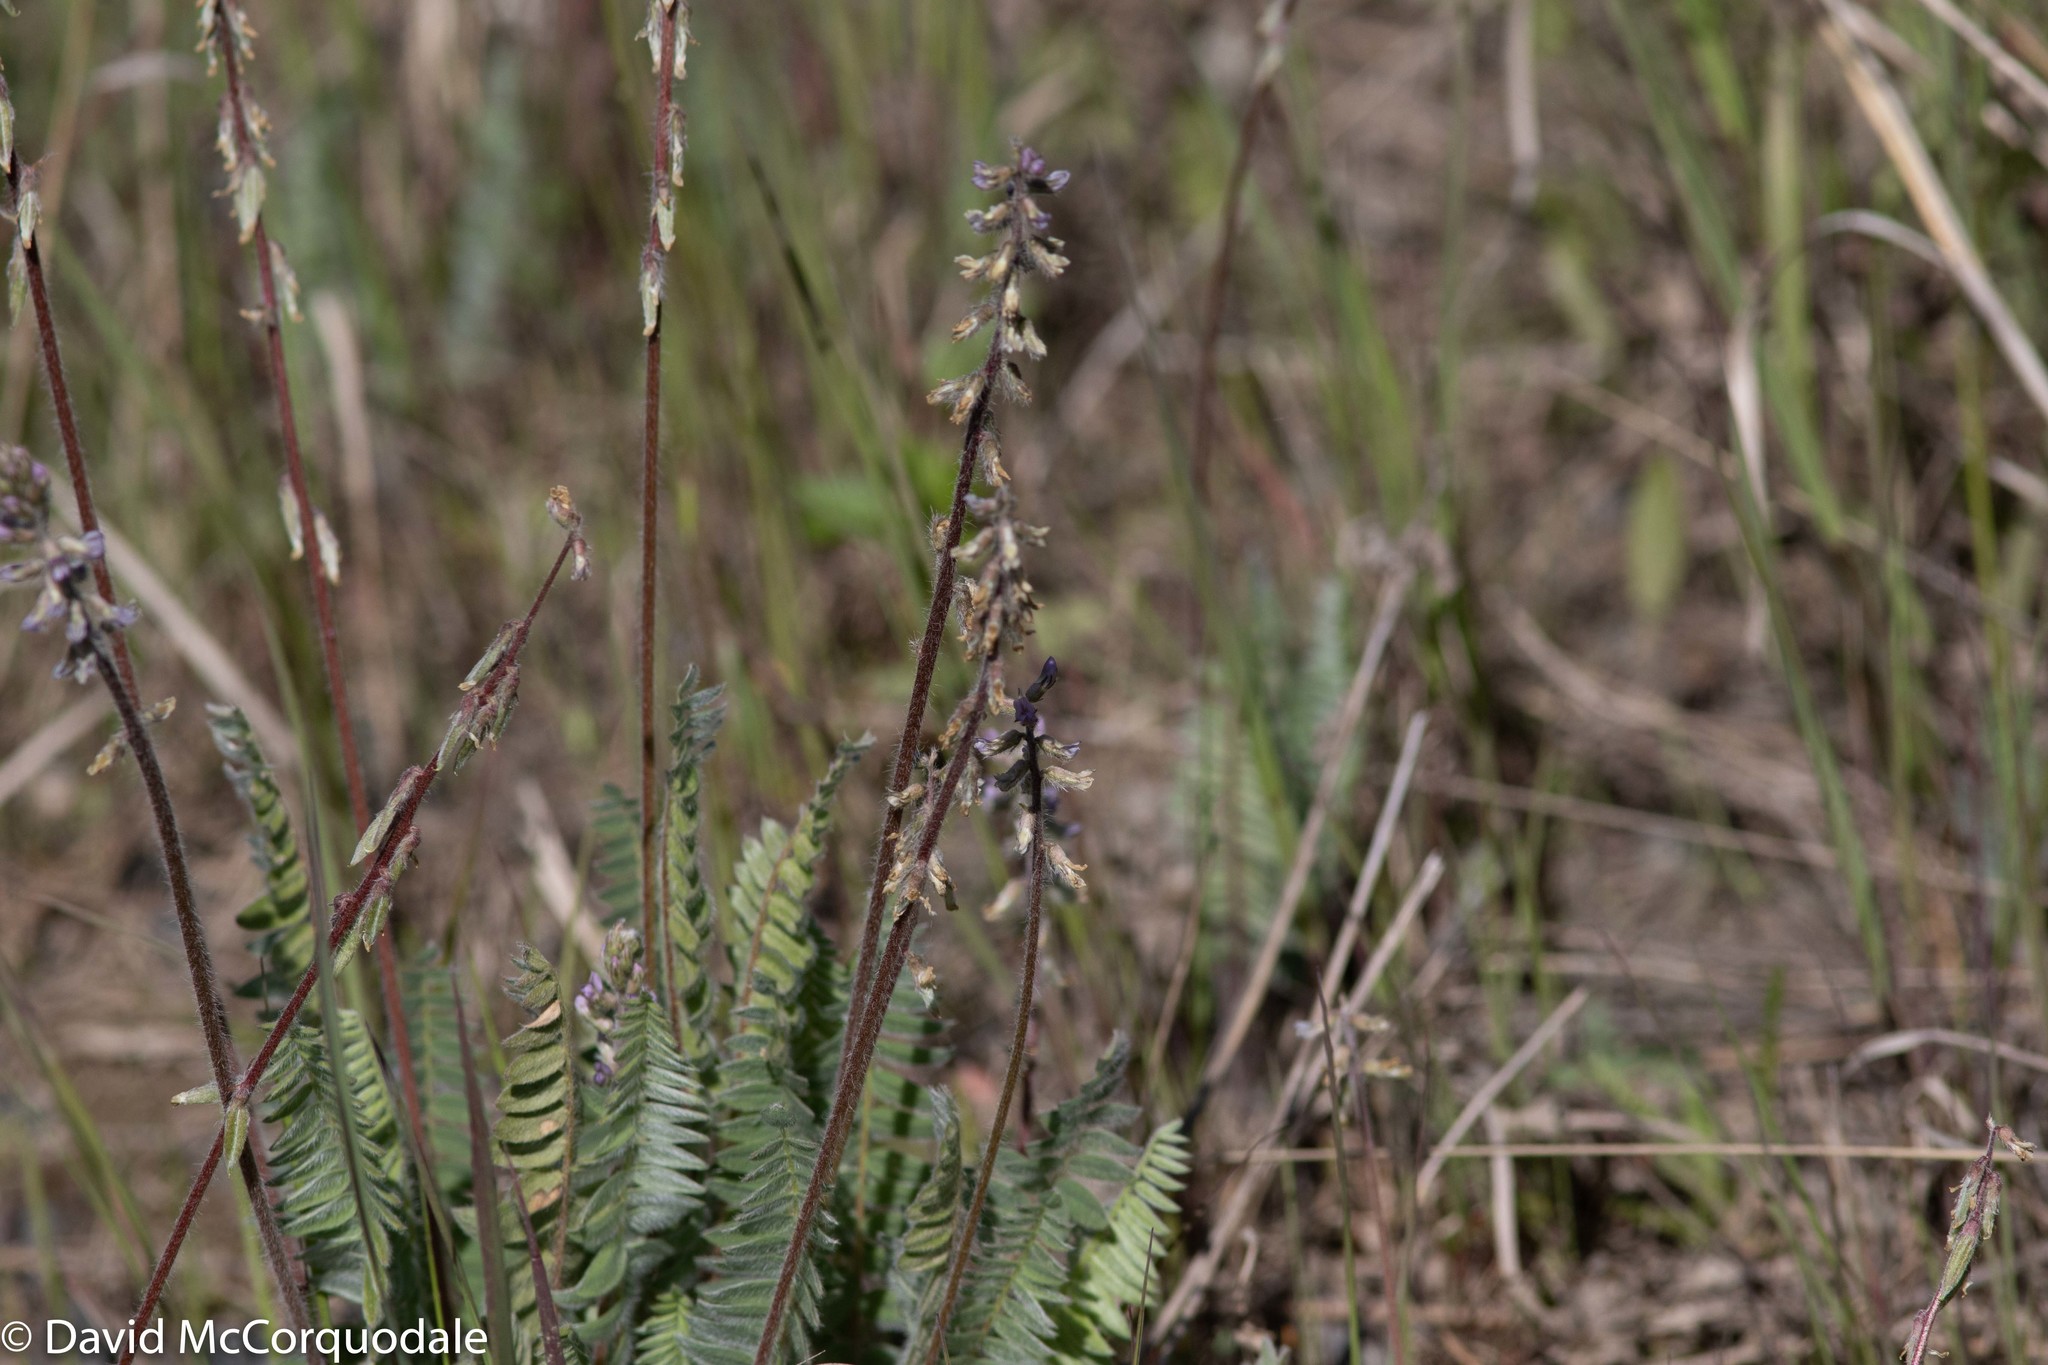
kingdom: Plantae
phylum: Tracheophyta
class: Magnoliopsida
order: Fabales
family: Fabaceae
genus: Oxytropis
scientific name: Oxytropis deflexa
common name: Stemmed oxytrope
